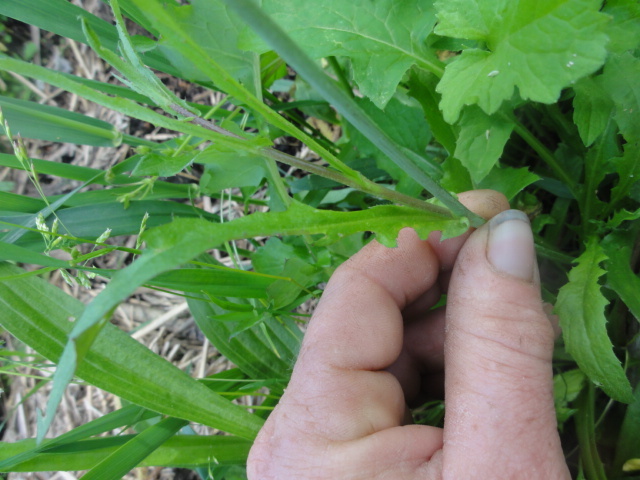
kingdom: Plantae
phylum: Tracheophyta
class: Magnoliopsida
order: Brassicales
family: Brassicaceae
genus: Capsella
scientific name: Capsella bursa-pastoris
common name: Shepherd's purse
